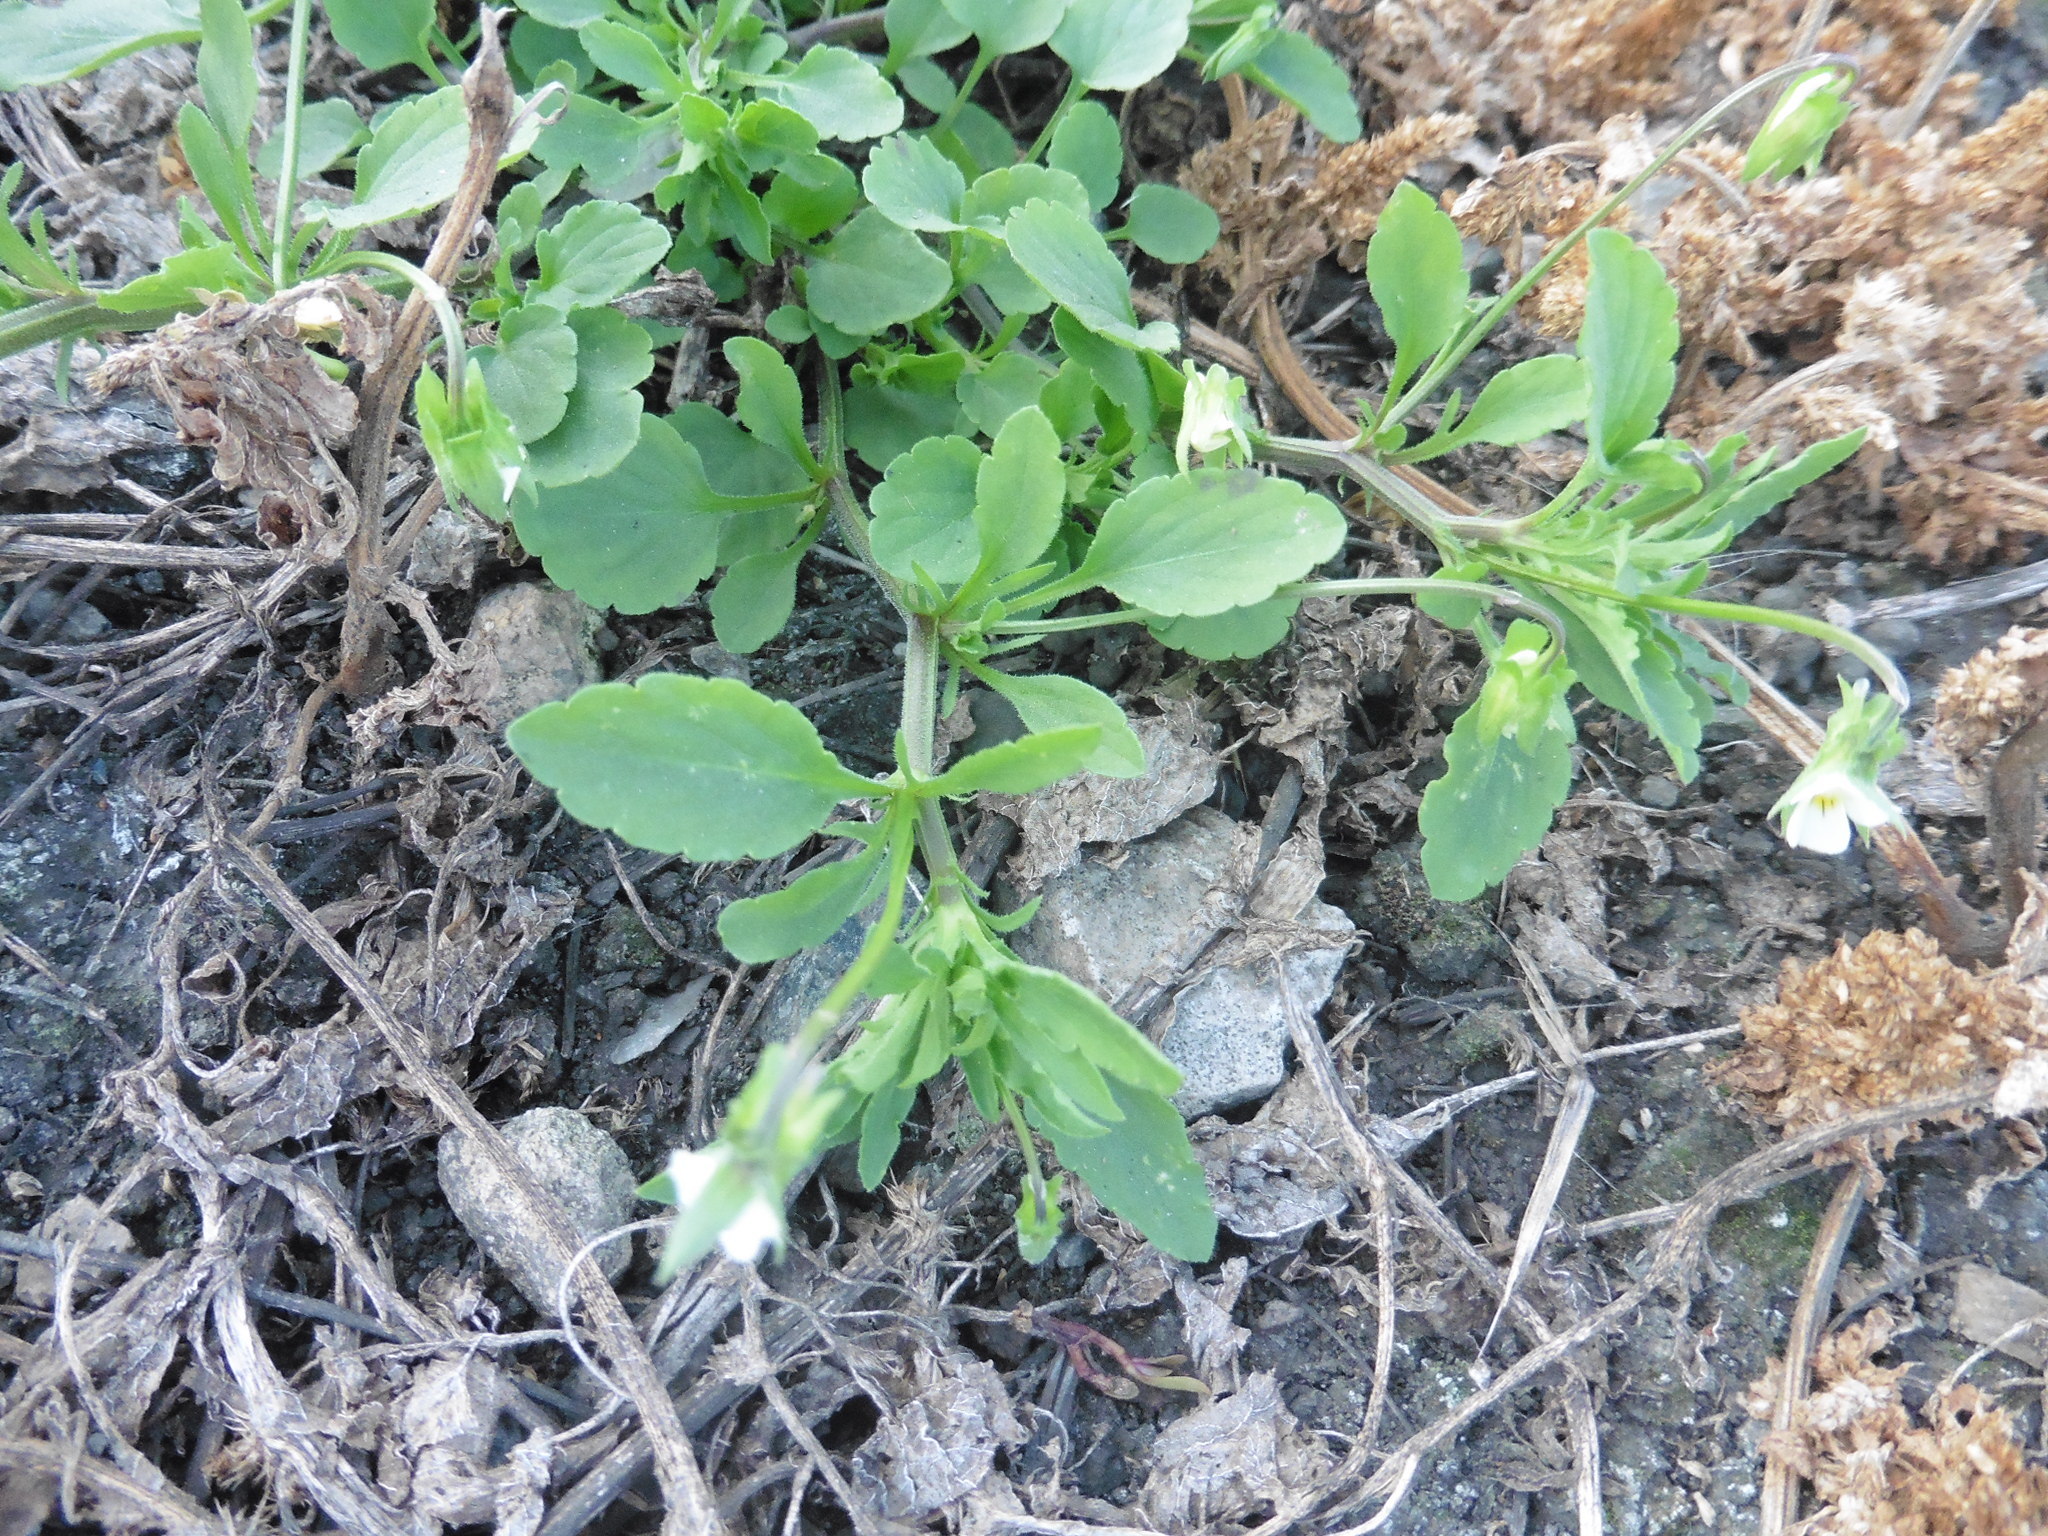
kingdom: Plantae
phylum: Tracheophyta
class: Magnoliopsida
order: Malpighiales
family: Violaceae
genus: Viola
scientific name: Viola arvensis
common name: Field pansy
